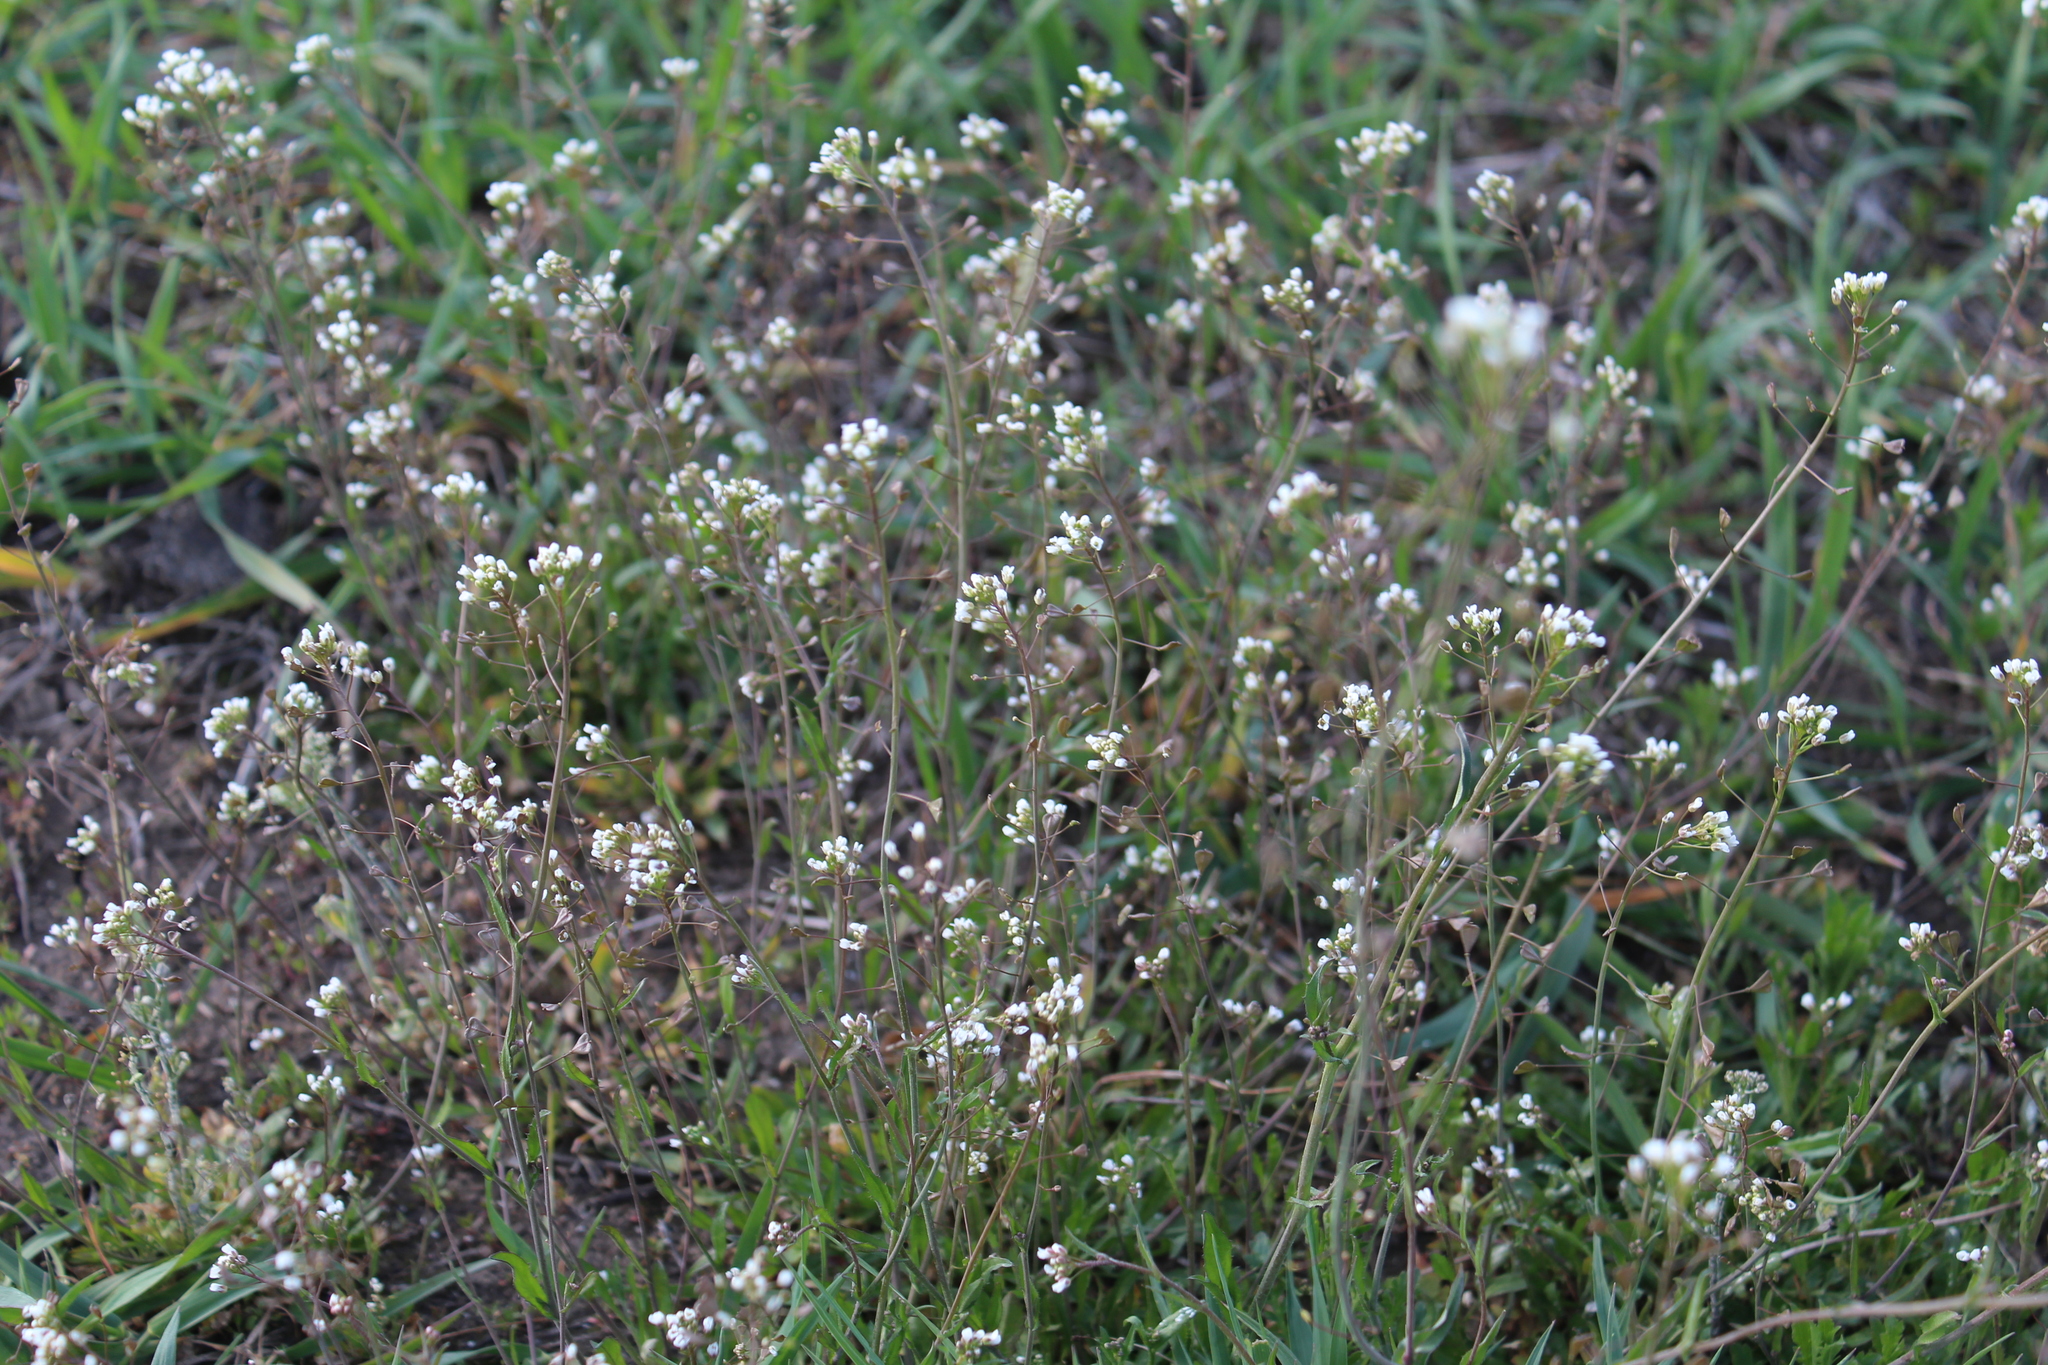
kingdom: Plantae
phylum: Tracheophyta
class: Magnoliopsida
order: Brassicales
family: Brassicaceae
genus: Capsella
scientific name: Capsella bursa-pastoris
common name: Shepherd's purse
